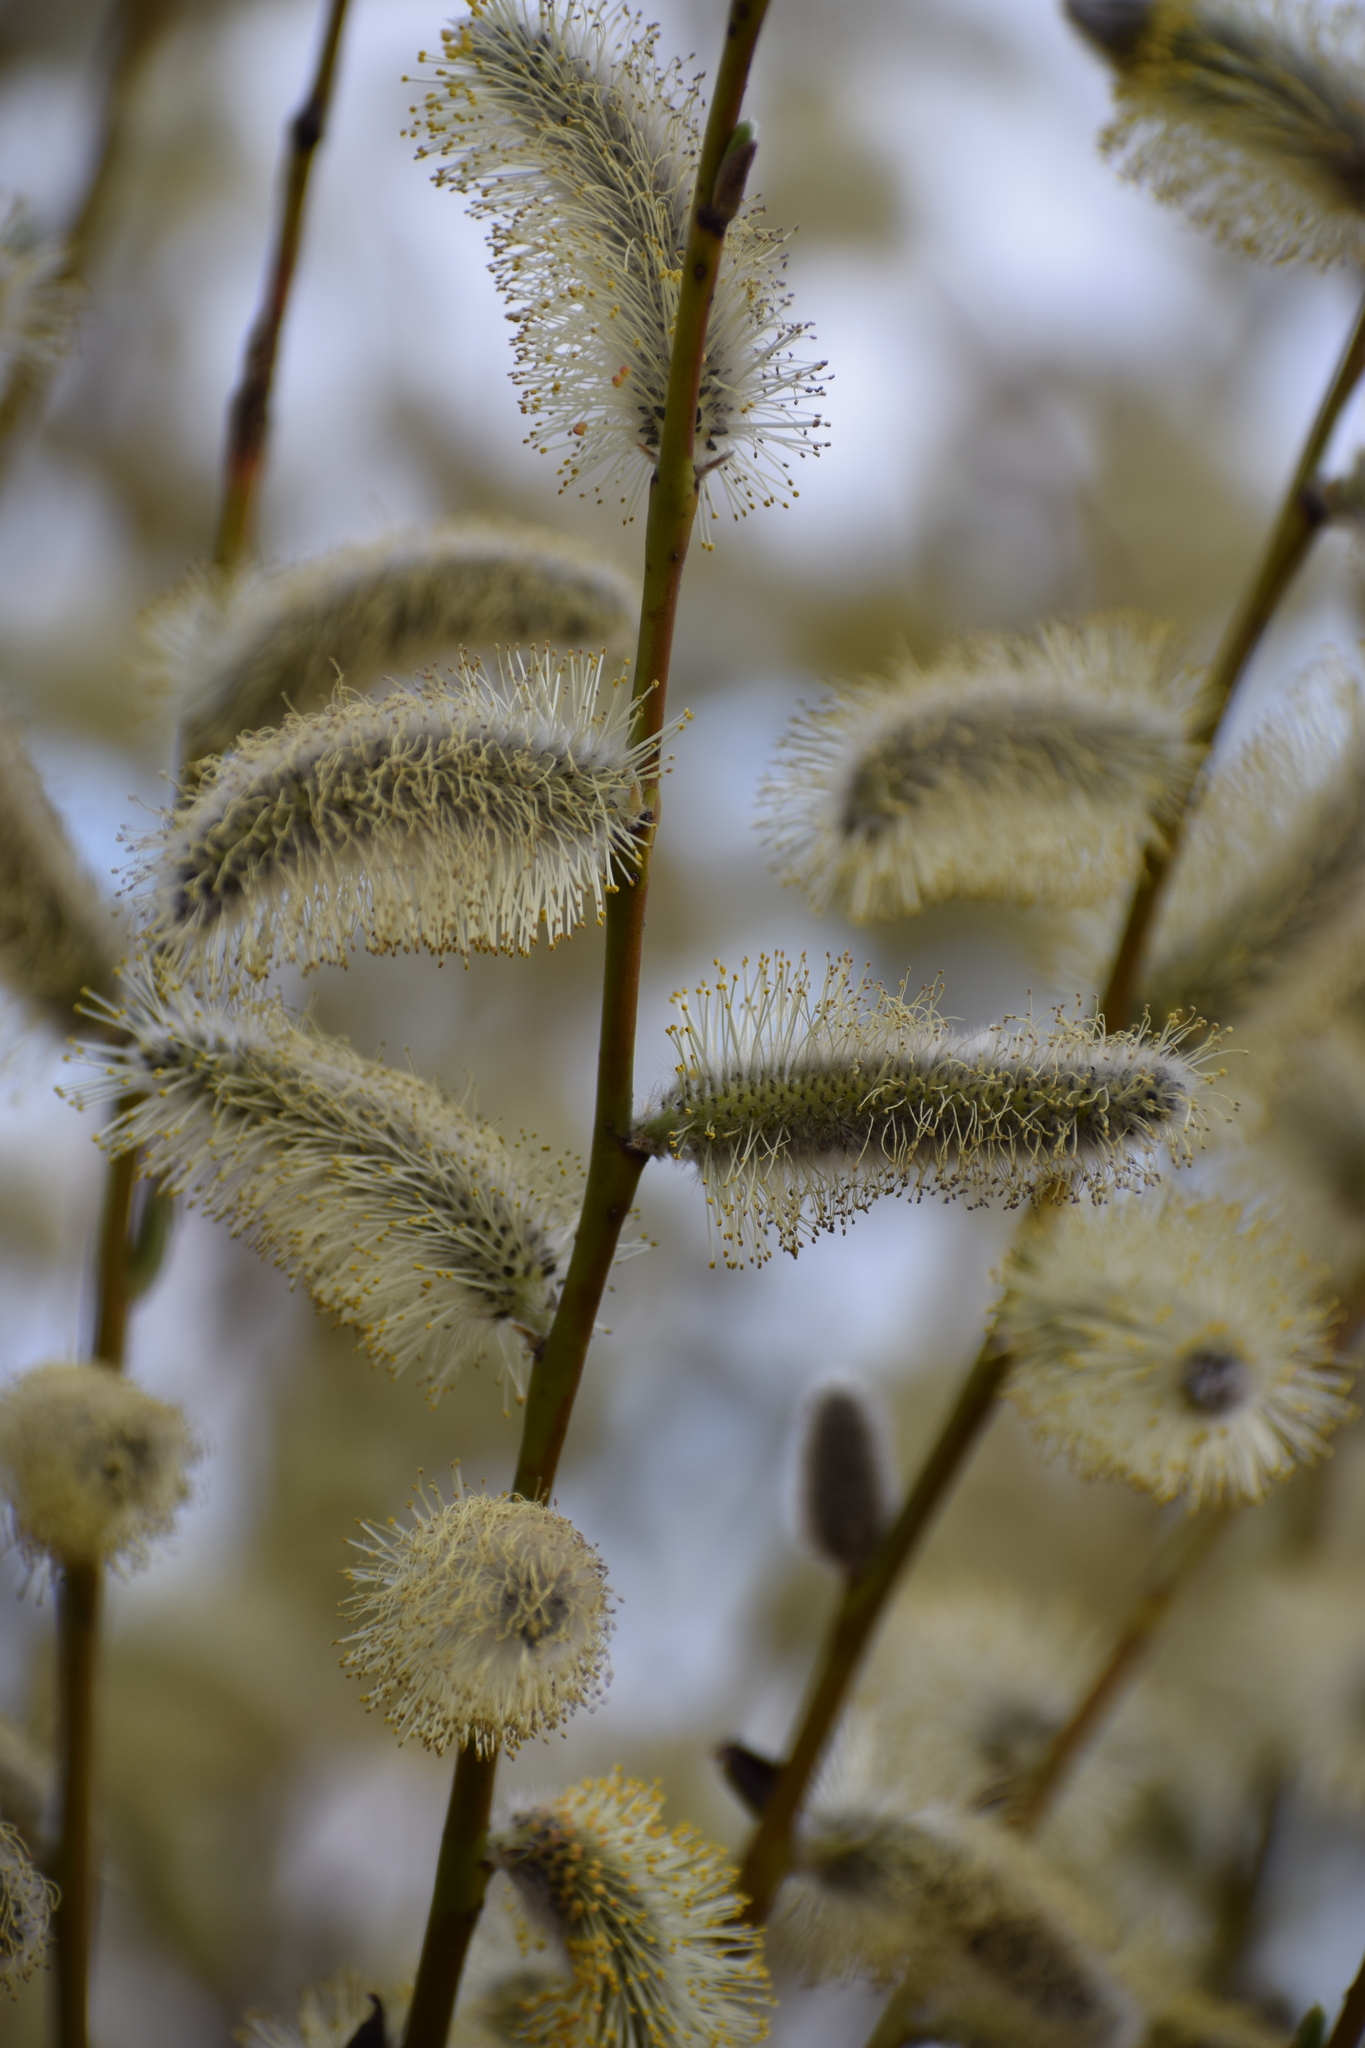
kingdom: Plantae
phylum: Tracheophyta
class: Magnoliopsida
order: Malpighiales
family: Salicaceae
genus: Salix
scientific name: Salix cinerea
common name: Common sallow
